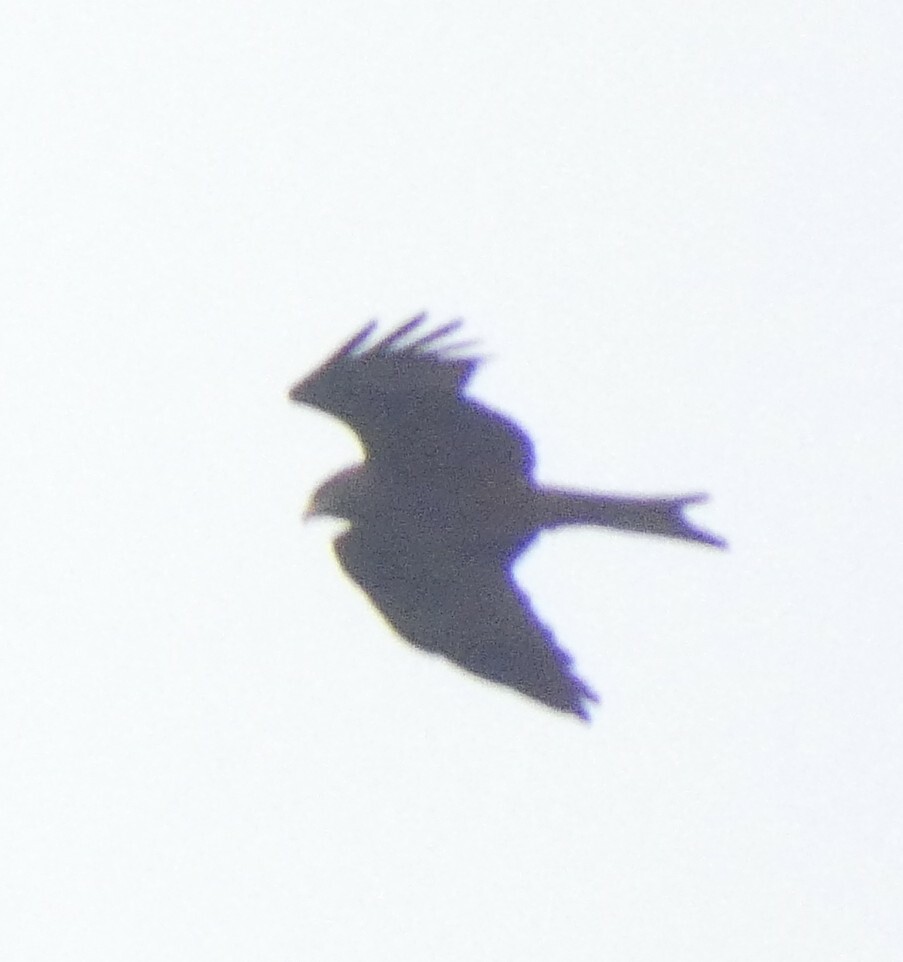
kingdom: Animalia
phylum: Chordata
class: Aves
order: Accipitriformes
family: Accipitridae
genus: Milvus
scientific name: Milvus migrans
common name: Black kite
